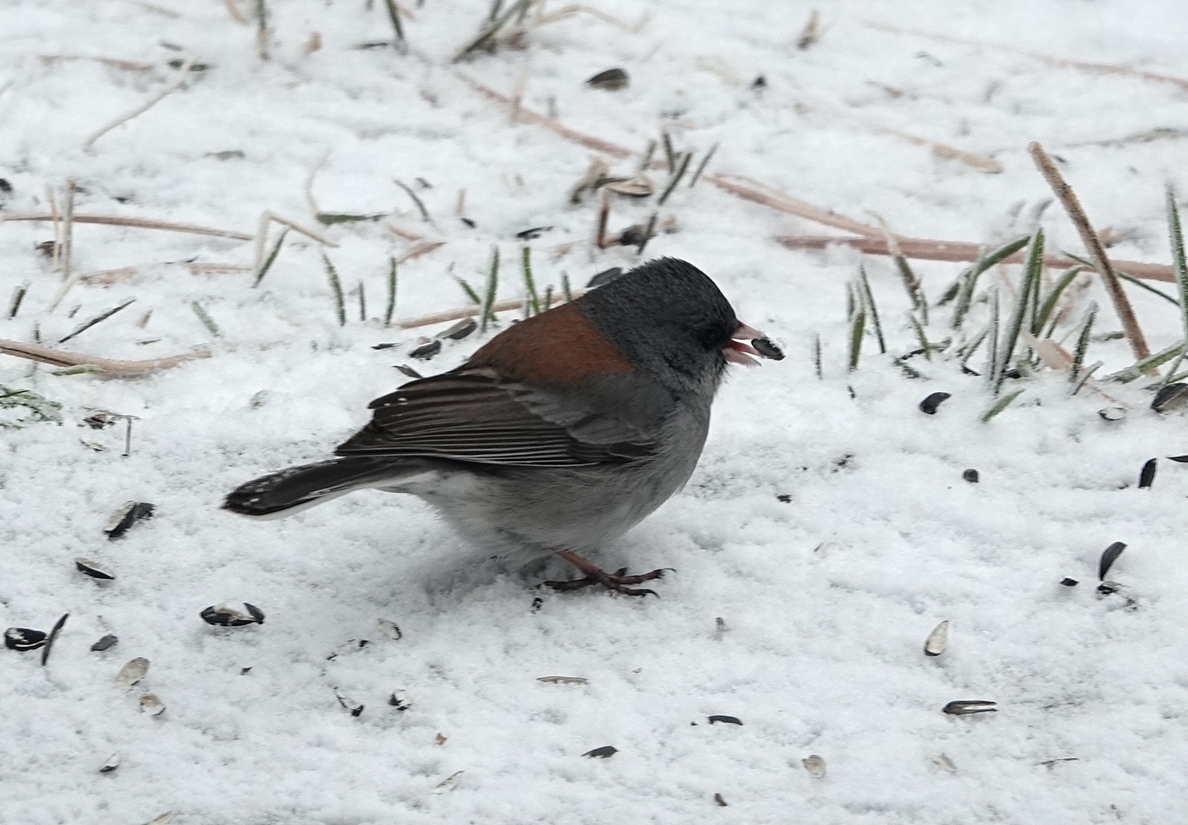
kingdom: Animalia
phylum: Chordata
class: Aves
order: Passeriformes
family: Passerellidae
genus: Junco
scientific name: Junco hyemalis
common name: Dark-eyed junco
